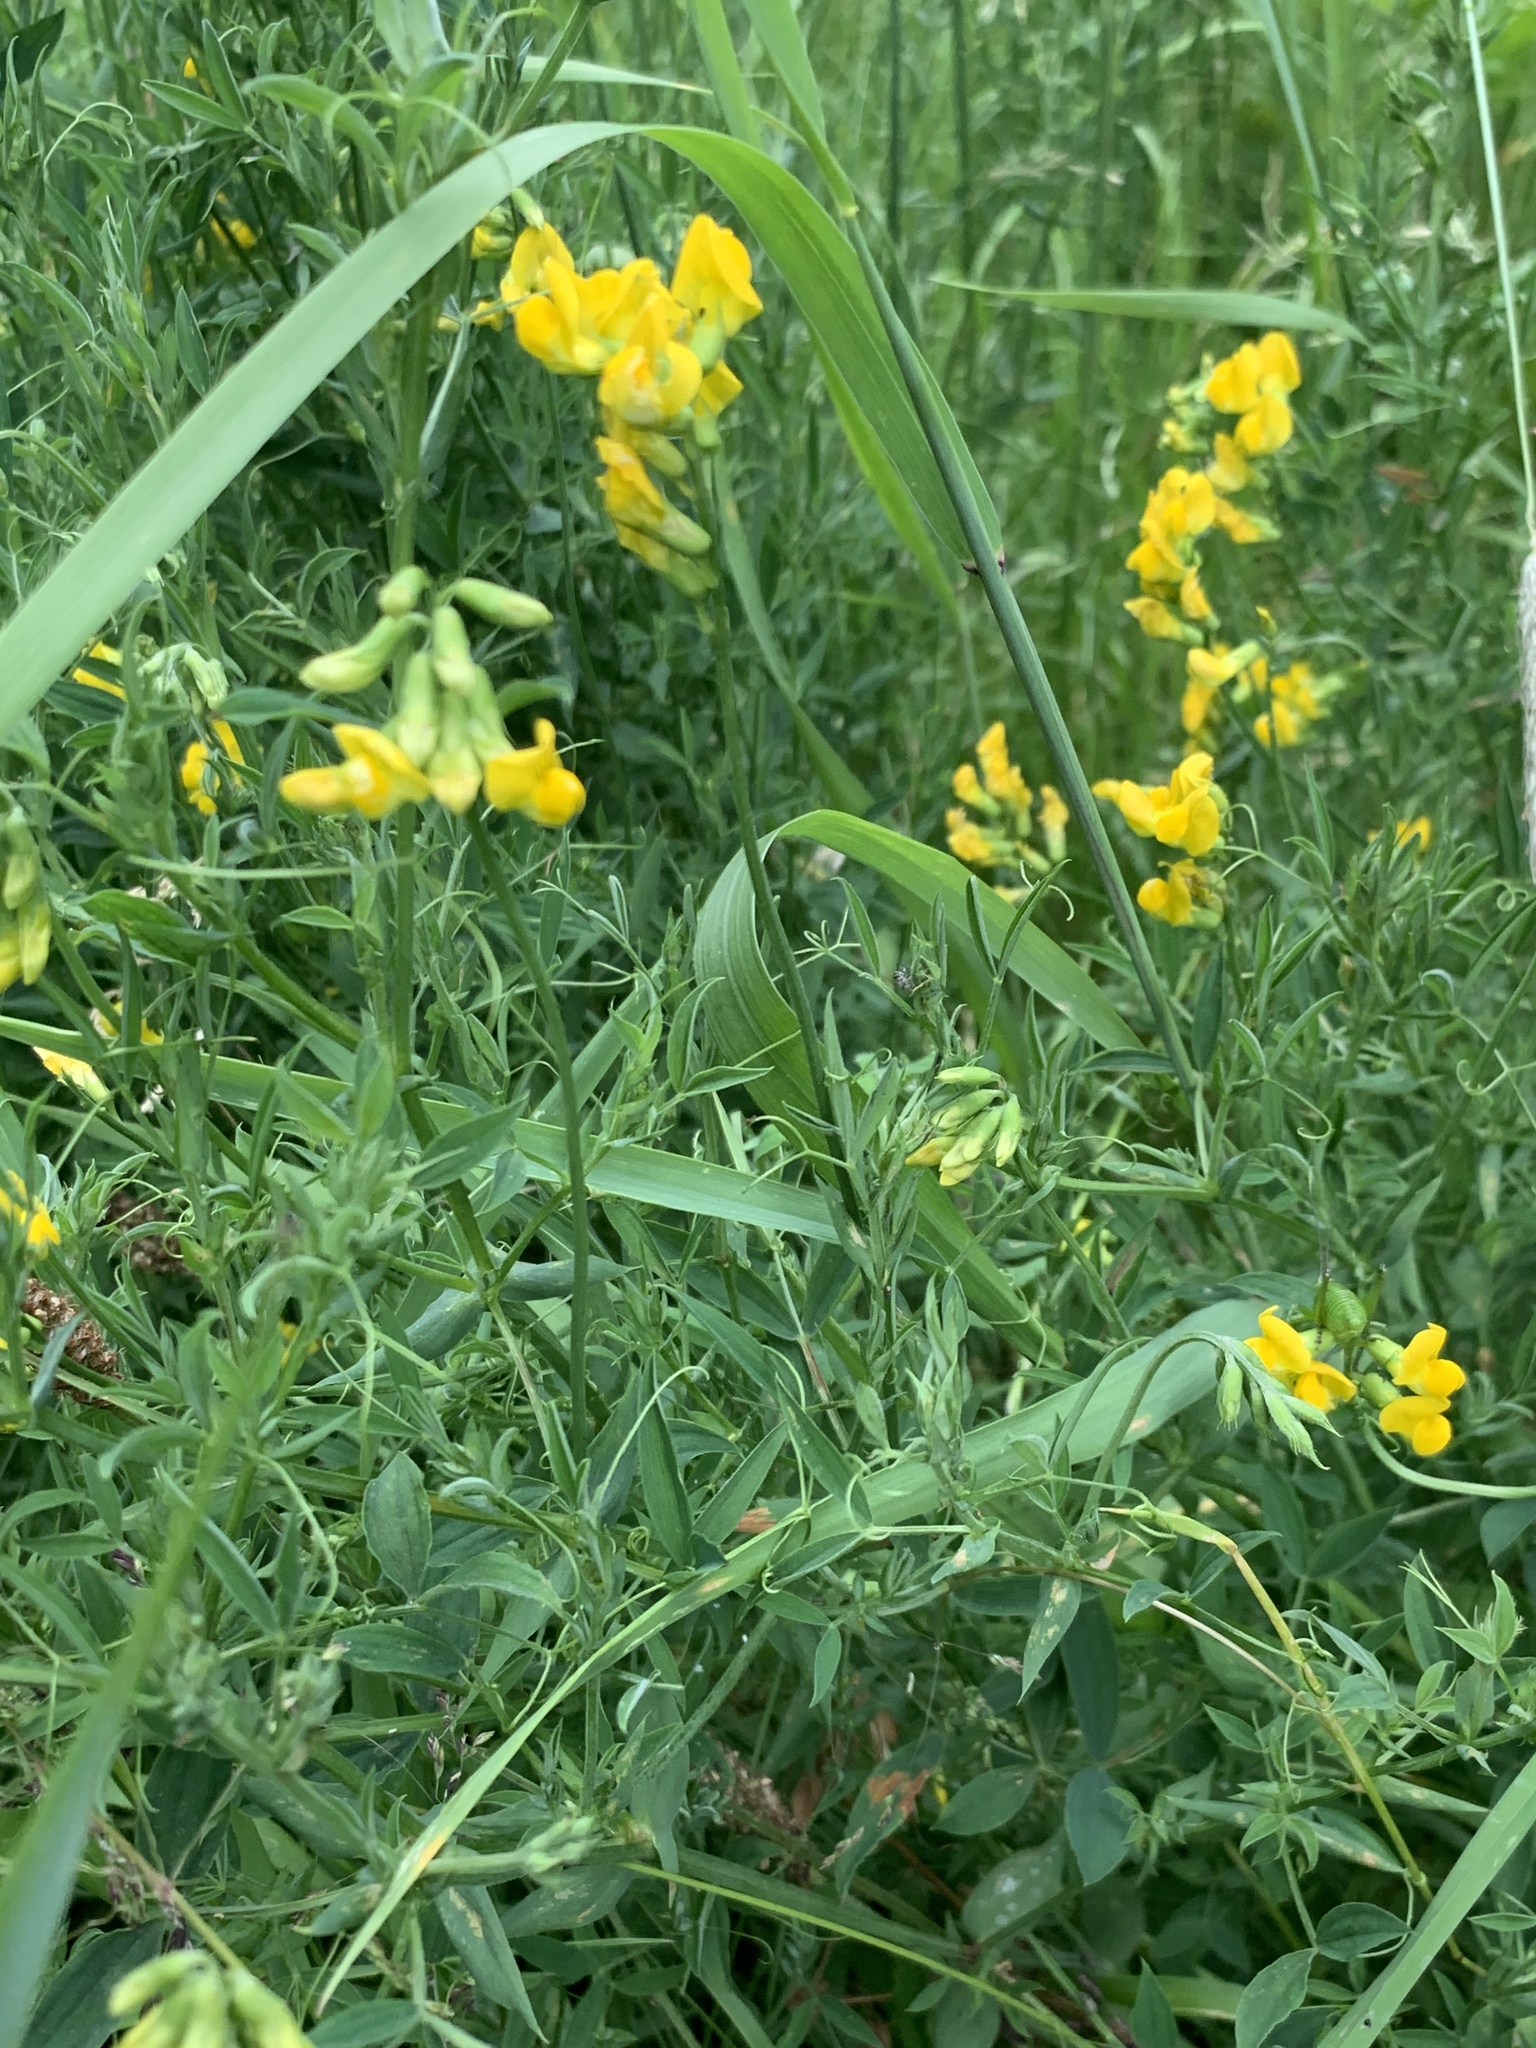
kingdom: Plantae
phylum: Tracheophyta
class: Magnoliopsida
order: Fabales
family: Fabaceae
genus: Lathyrus
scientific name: Lathyrus pratensis
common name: Meadow vetchling
